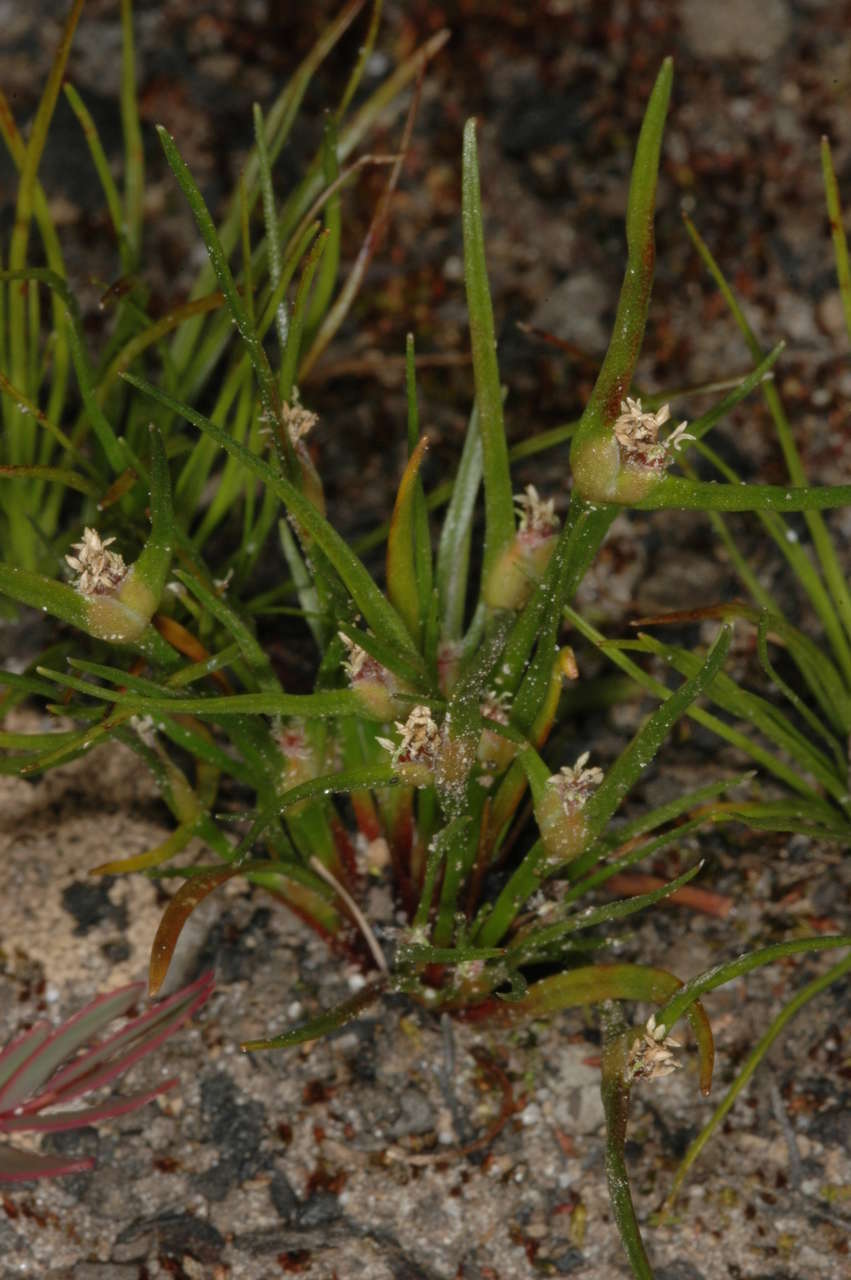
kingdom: Plantae
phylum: Tracheophyta
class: Liliopsida
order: Poales
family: Restionaceae
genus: Centrolepis
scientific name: Centrolepis aristata
